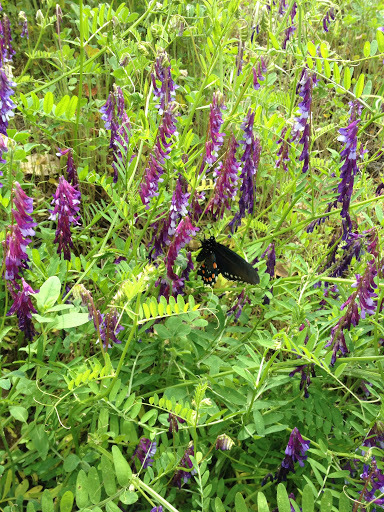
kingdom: Animalia
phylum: Arthropoda
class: Insecta
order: Lepidoptera
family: Papilionidae
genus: Battus
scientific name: Battus philenor
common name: Pipevine swallowtail
